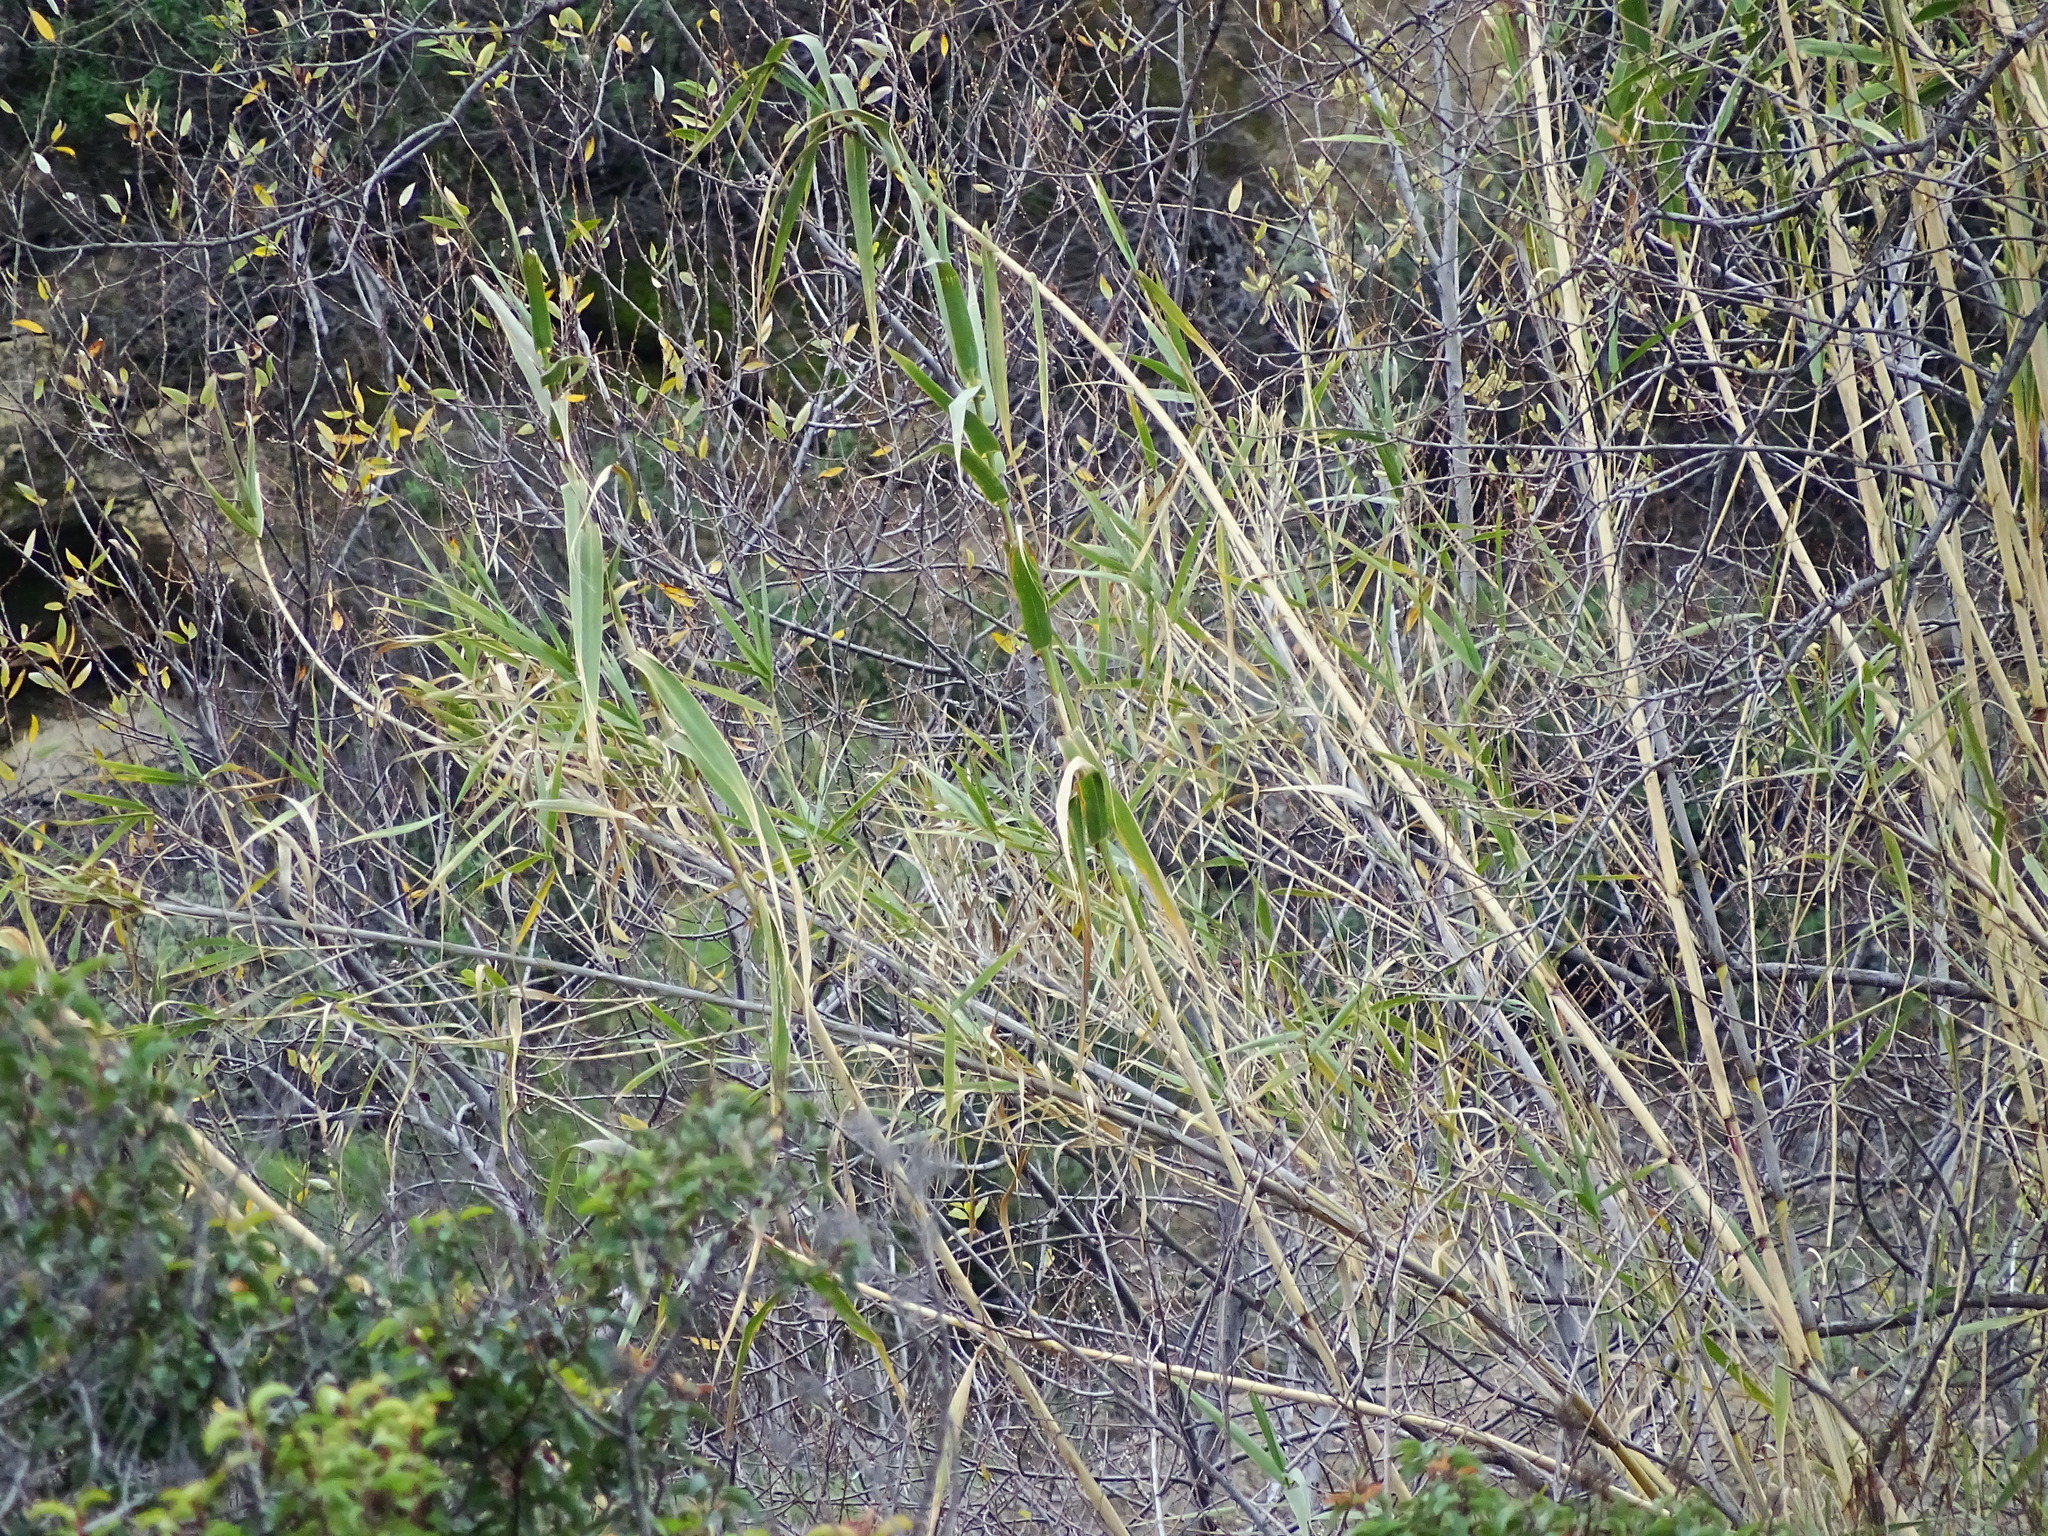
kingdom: Plantae
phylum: Tracheophyta
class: Liliopsida
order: Poales
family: Poaceae
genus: Arundo
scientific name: Arundo donax
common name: Giant reed
